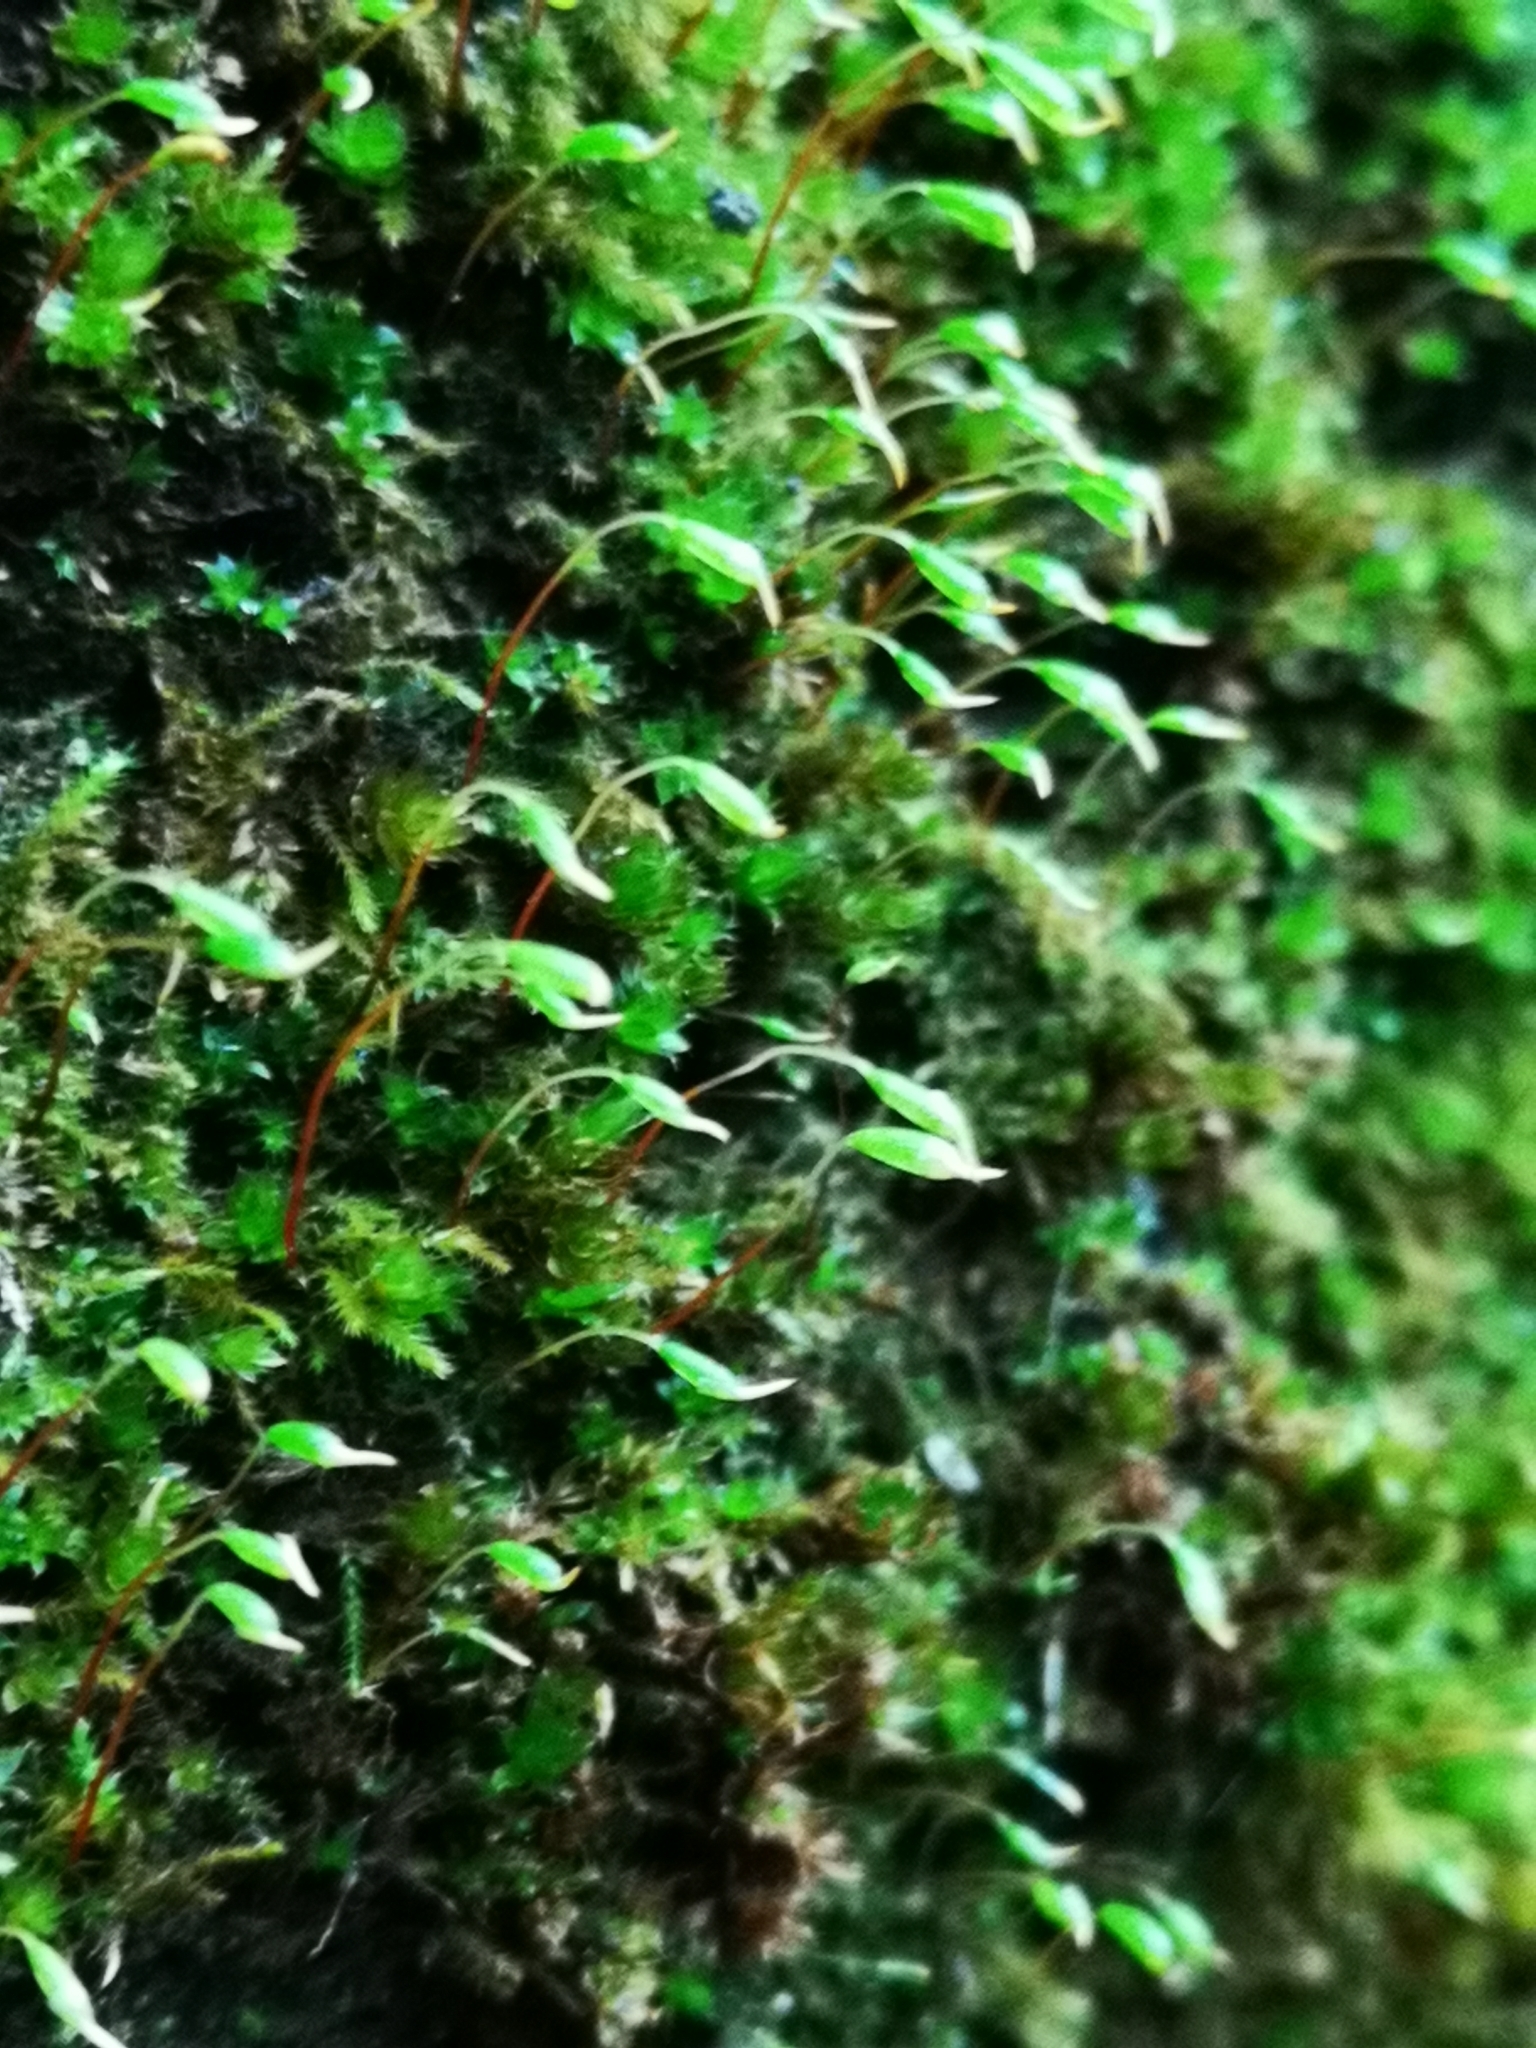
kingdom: Plantae
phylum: Bryophyta
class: Bryopsida
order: Orthodontiales
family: Orthodontiaceae
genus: Orthodontium
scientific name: Orthodontium lineare
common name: Cape thread-moss
